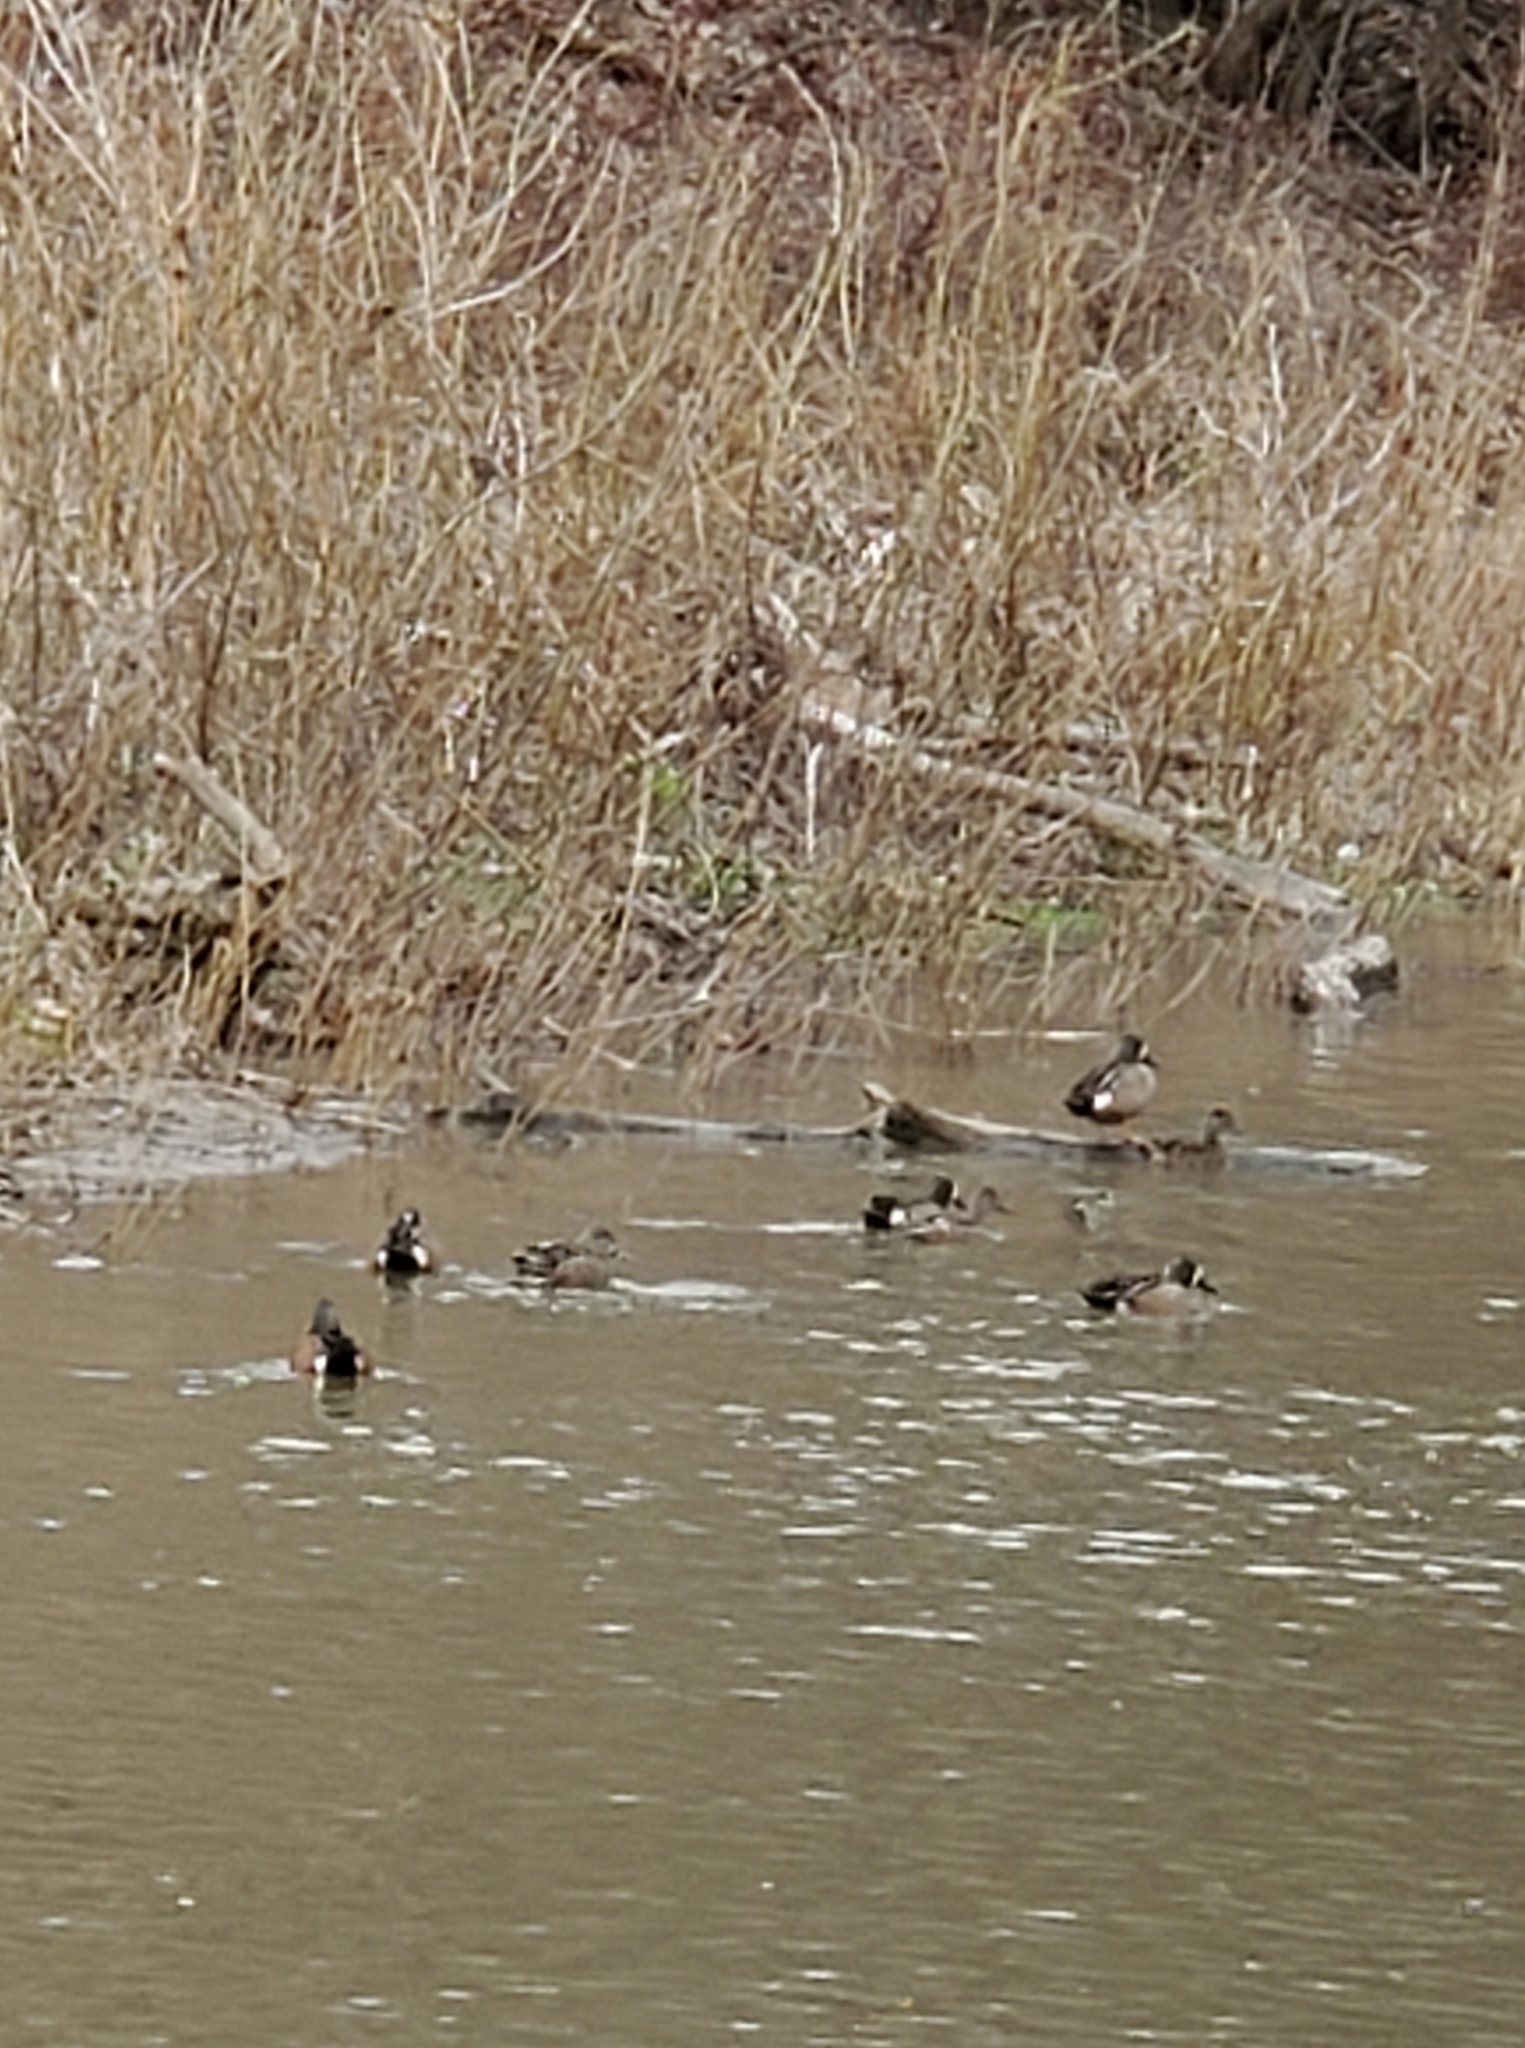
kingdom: Animalia
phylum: Chordata
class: Aves
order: Anseriformes
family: Anatidae
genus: Spatula
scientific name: Spatula discors
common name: Blue-winged teal
